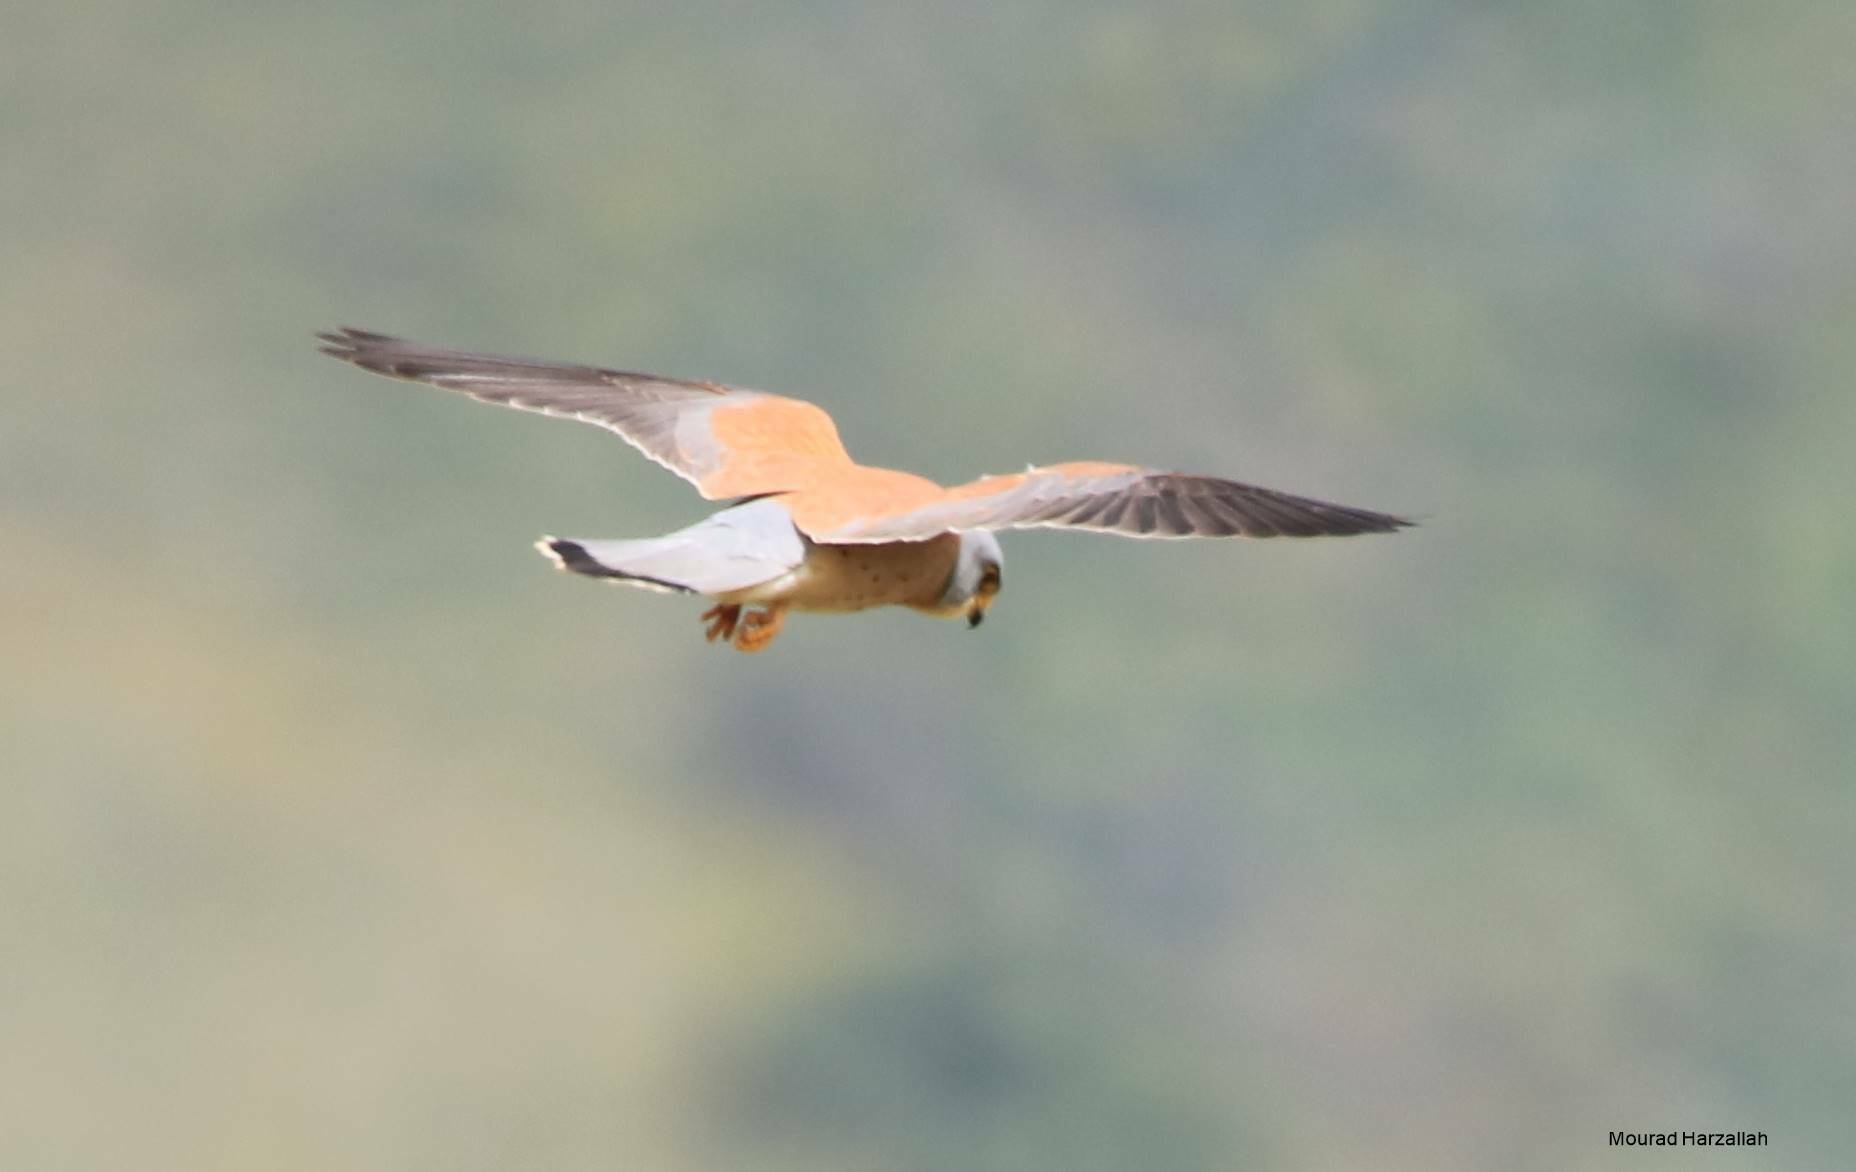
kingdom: Animalia
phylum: Chordata
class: Aves
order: Falconiformes
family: Falconidae
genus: Falco
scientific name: Falco naumanni
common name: Lesser kestrel
